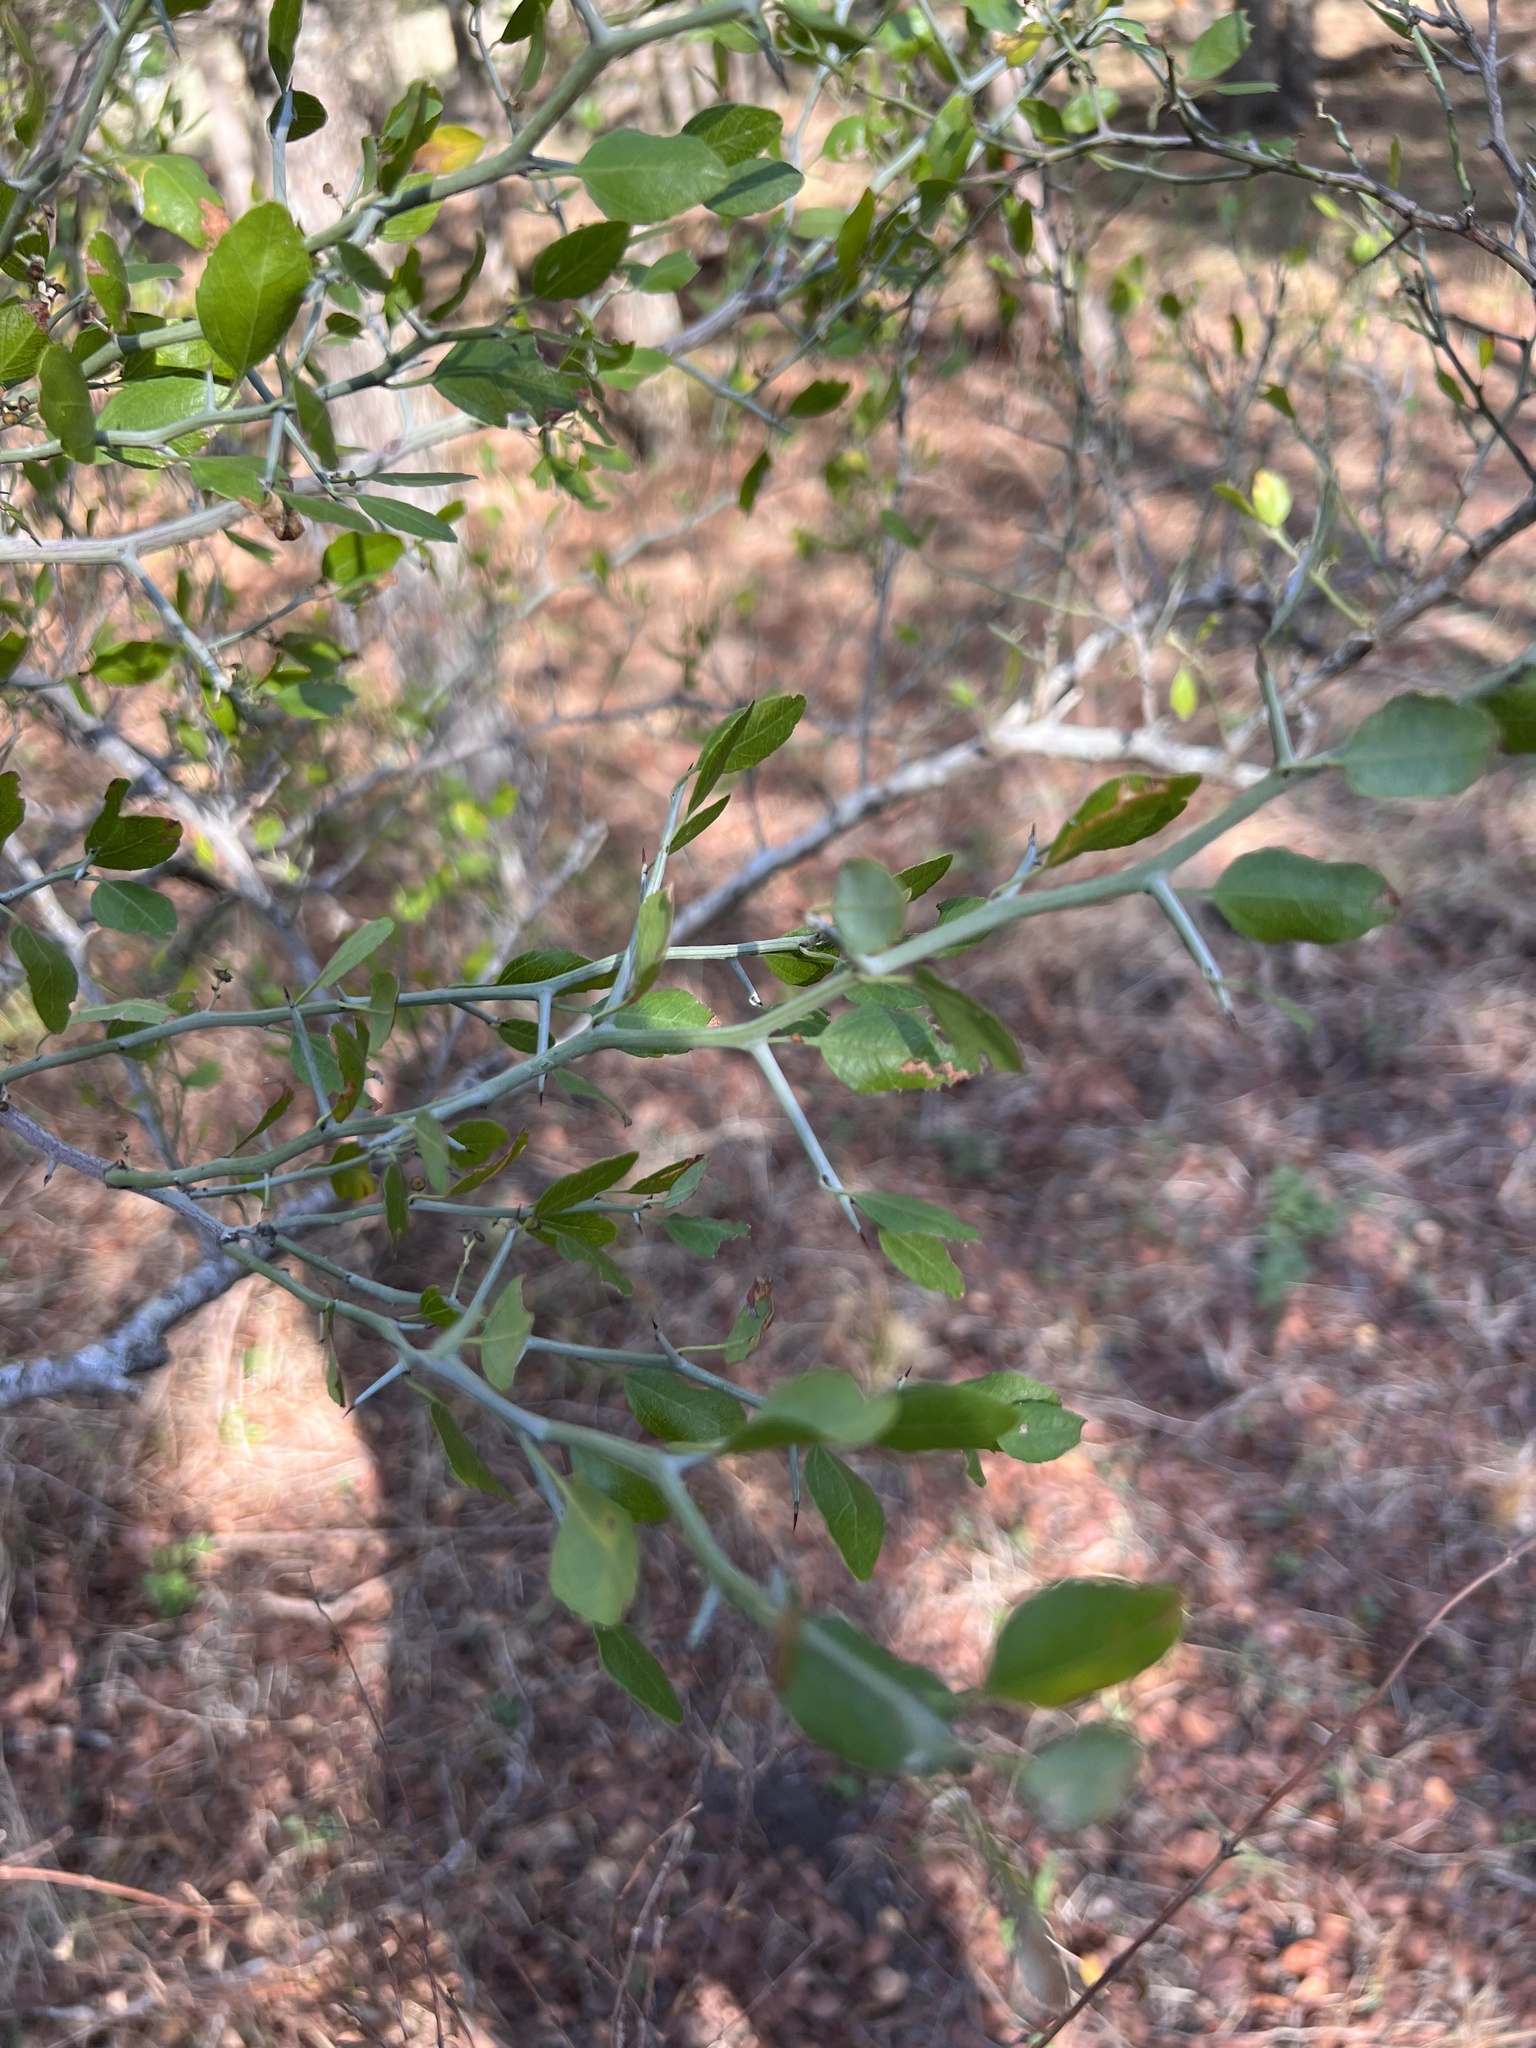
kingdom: Plantae
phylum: Tracheophyta
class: Magnoliopsida
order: Rosales
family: Rhamnaceae
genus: Sarcomphalus
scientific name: Sarcomphalus obtusifolius
